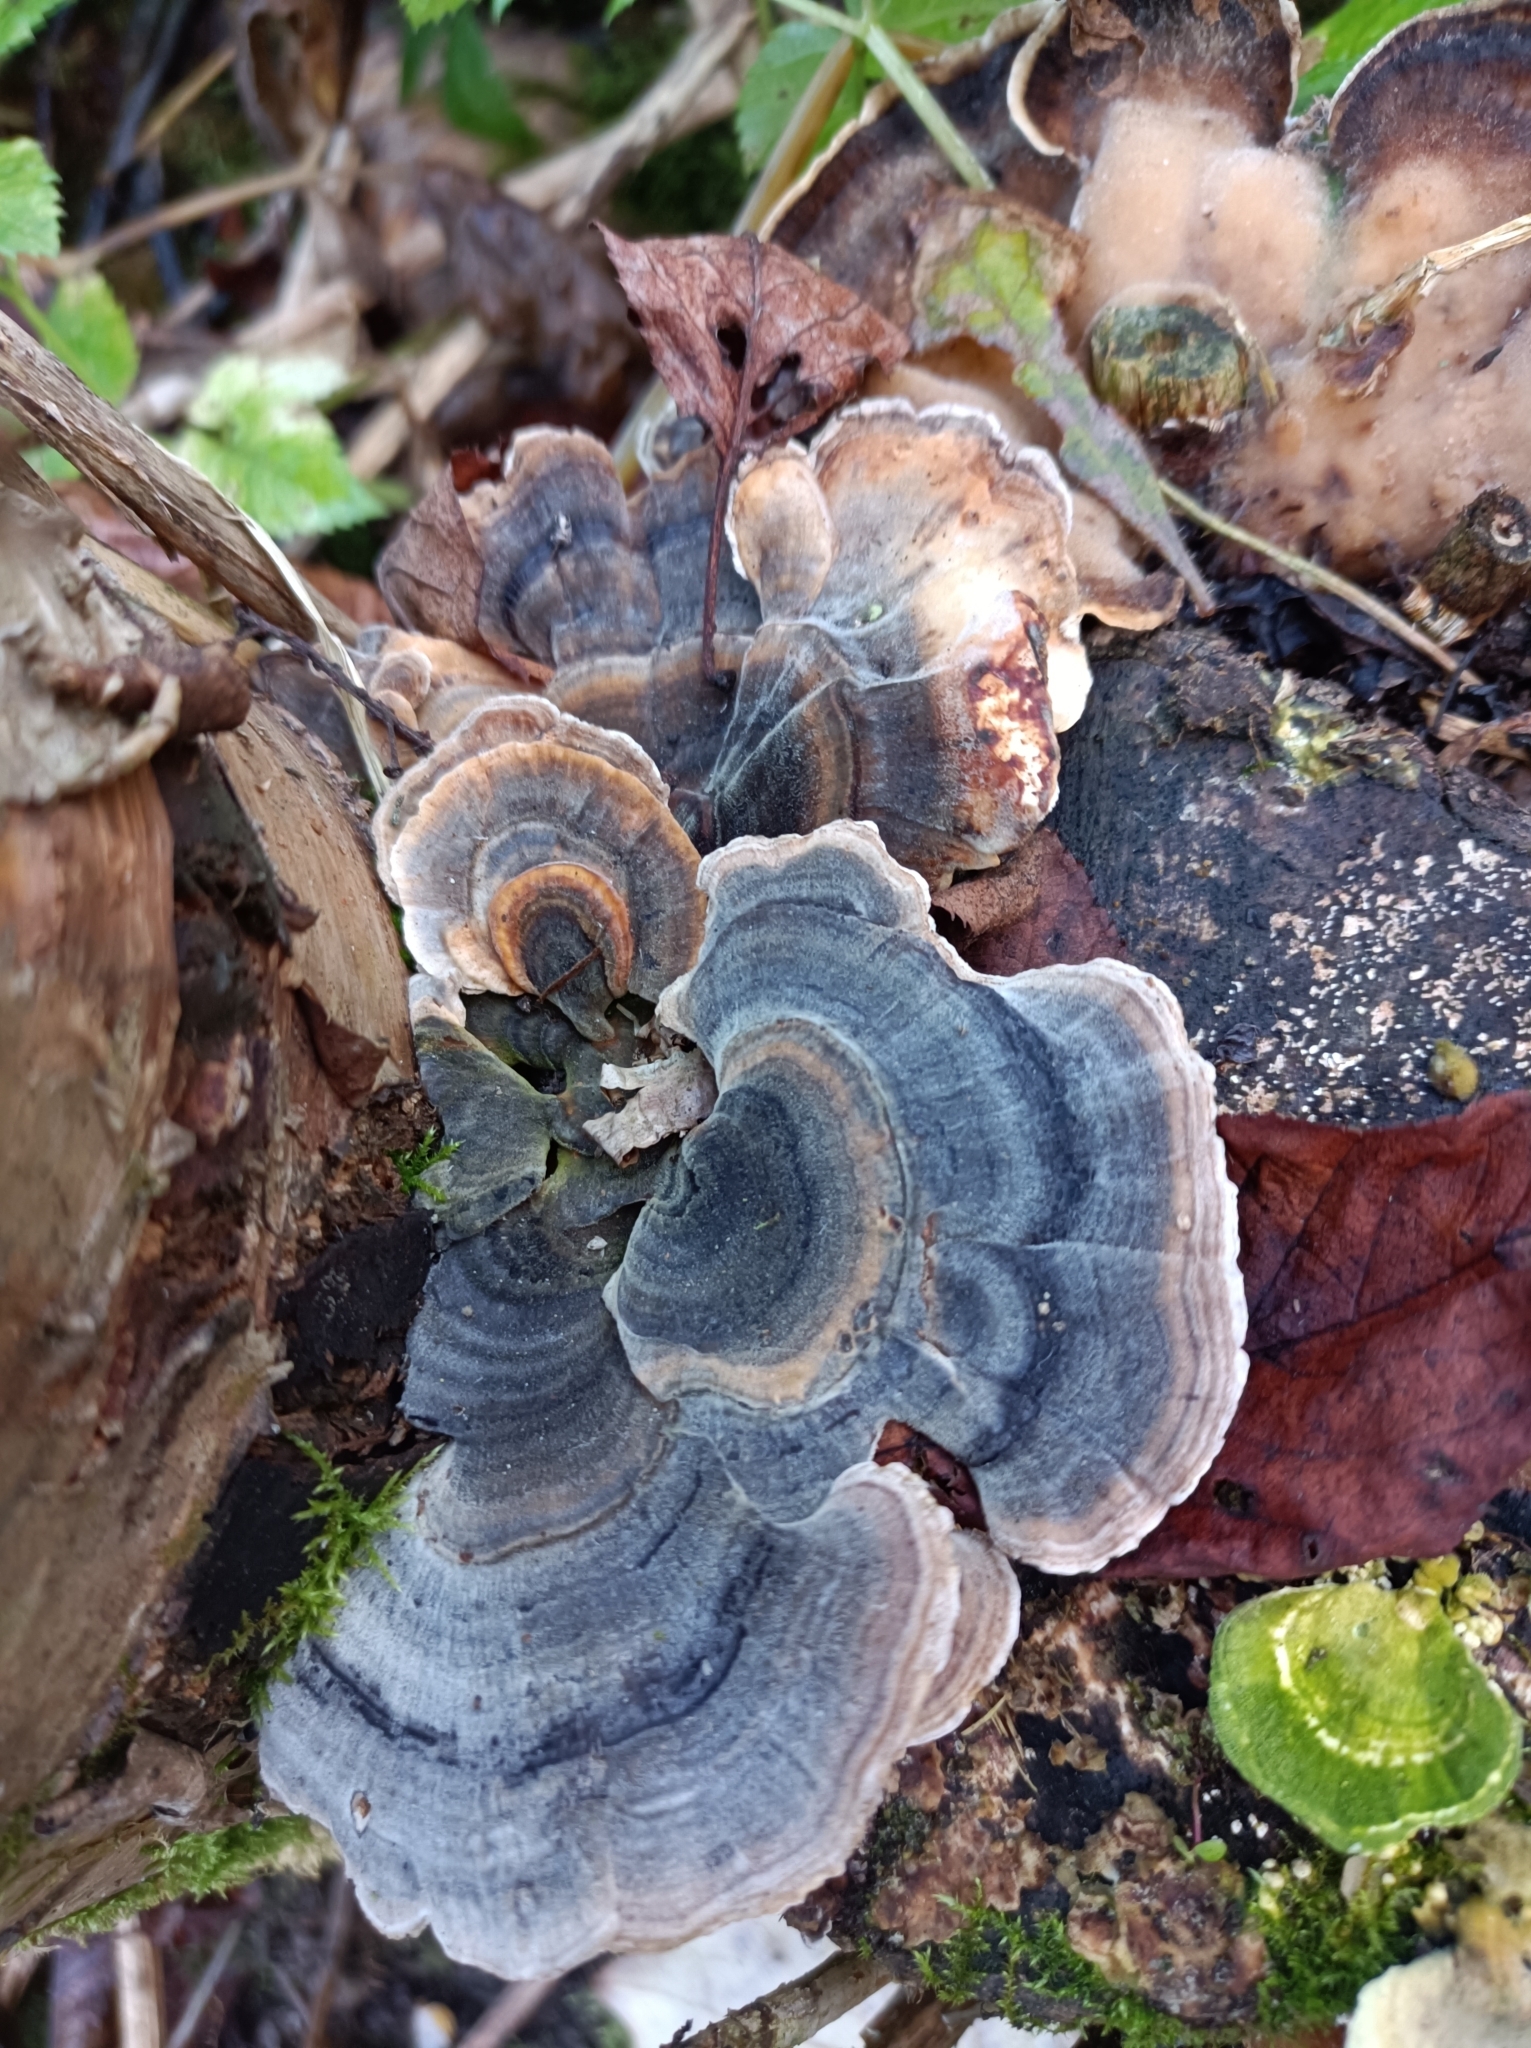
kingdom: Fungi
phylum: Basidiomycota
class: Agaricomycetes
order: Polyporales
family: Polyporaceae
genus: Trametes
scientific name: Trametes versicolor
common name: Turkeytail
